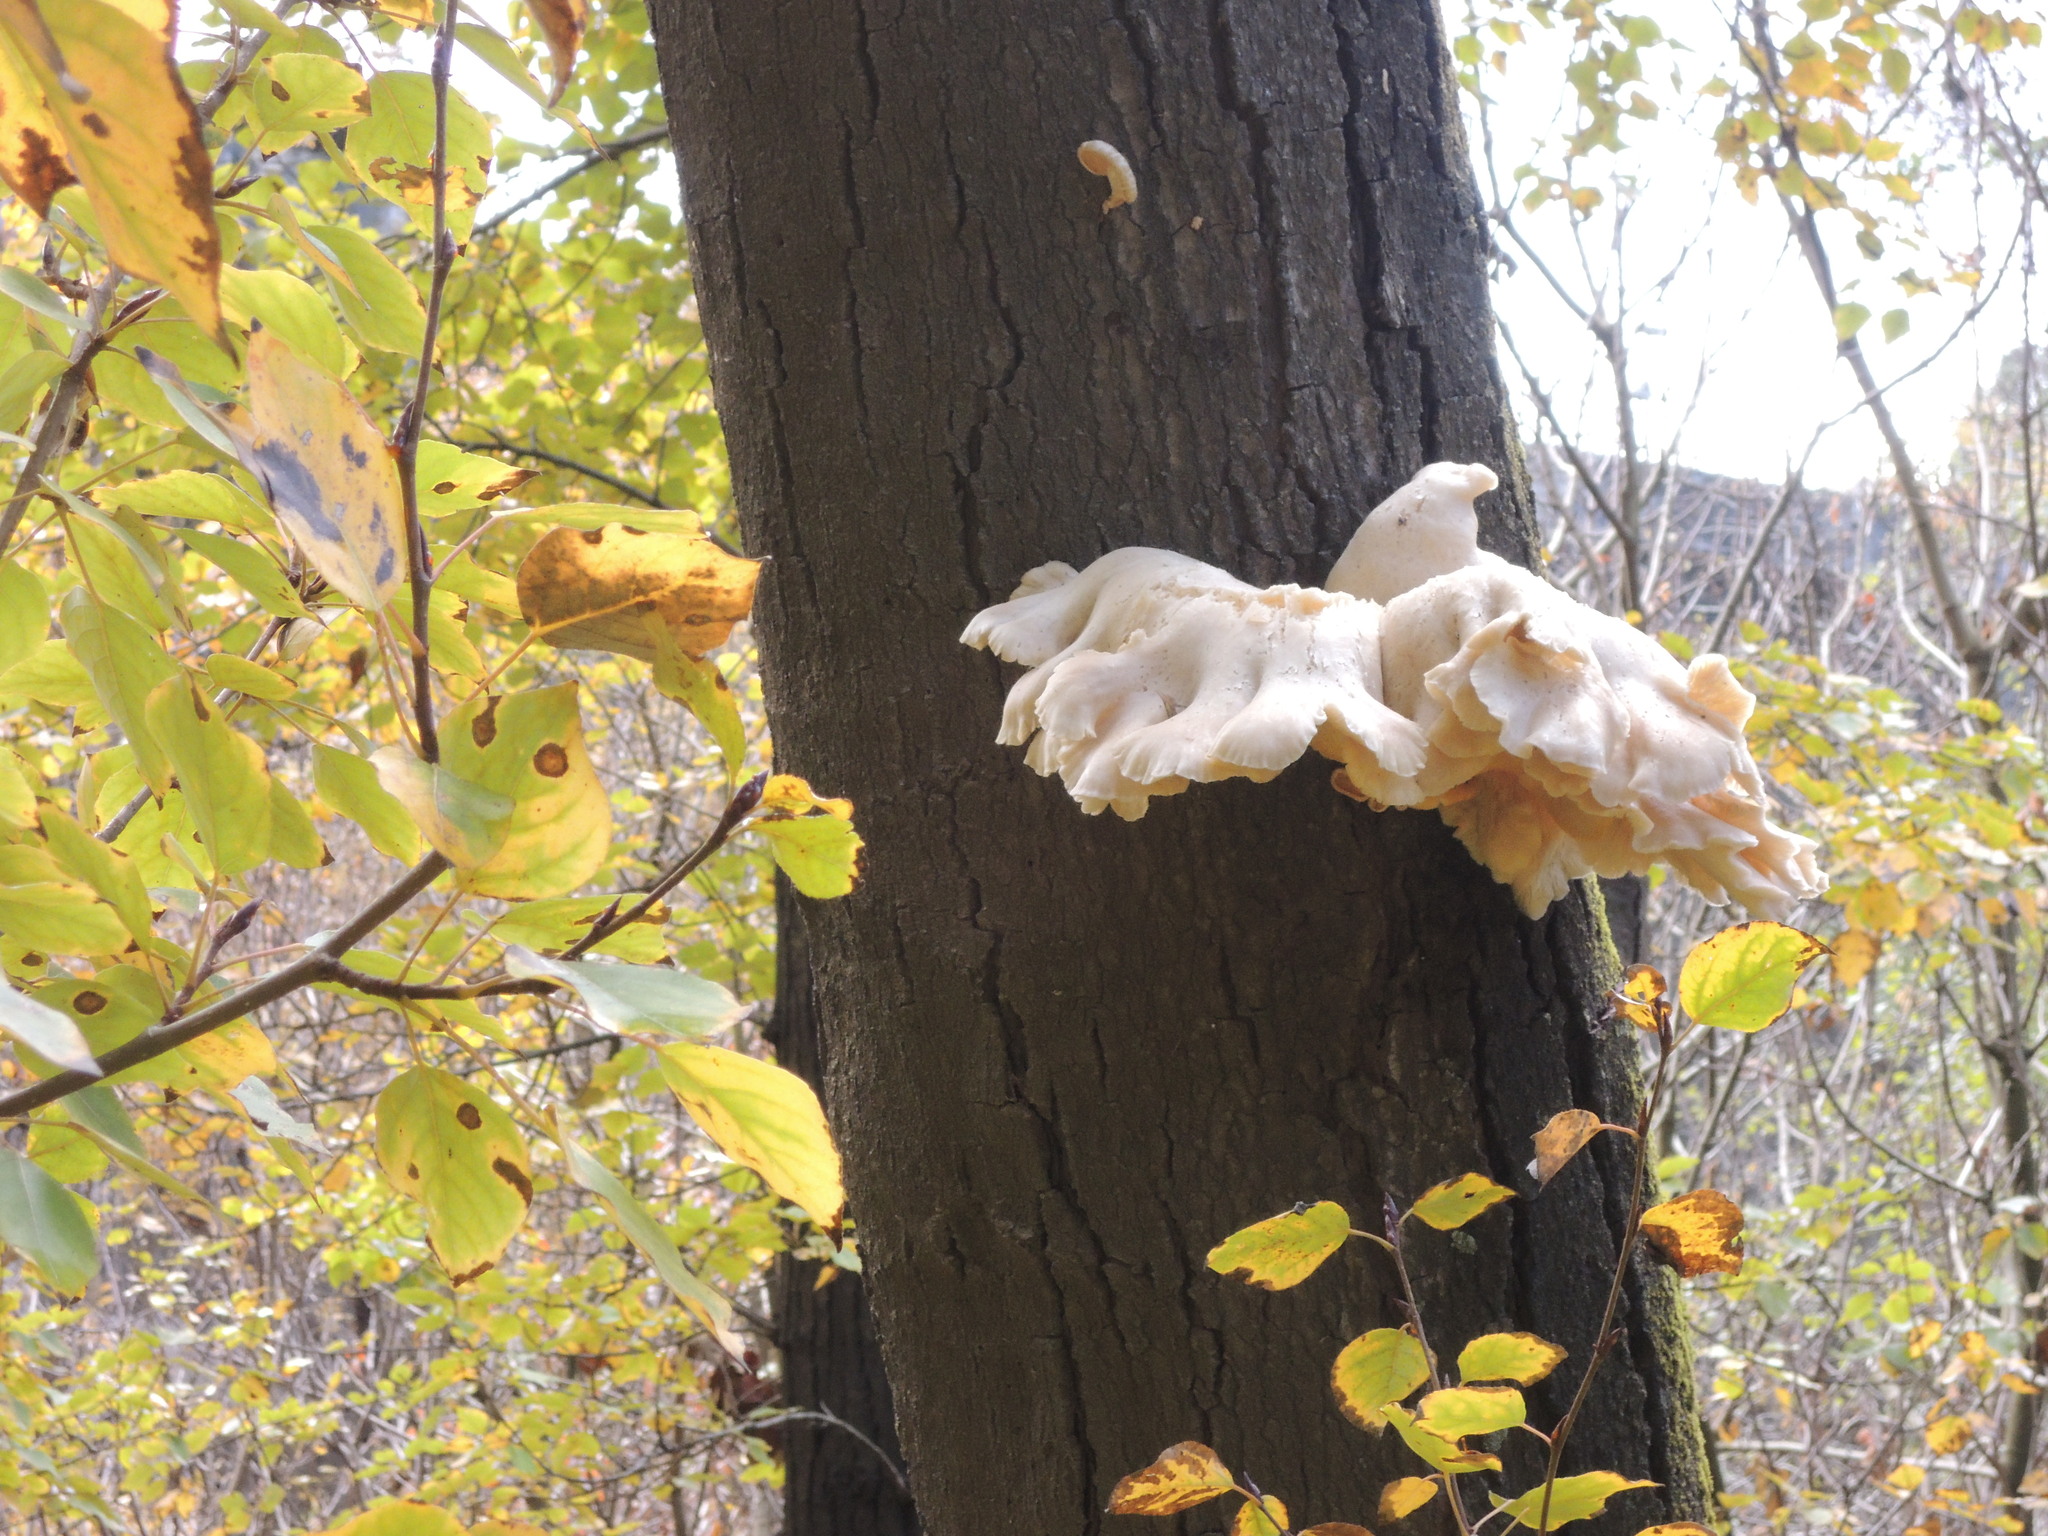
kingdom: Fungi
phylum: Basidiomycota
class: Agaricomycetes
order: Agaricales
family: Pleurotaceae
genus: Pleurotus
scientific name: Pleurotus ostreatus
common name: Oyster mushroom
